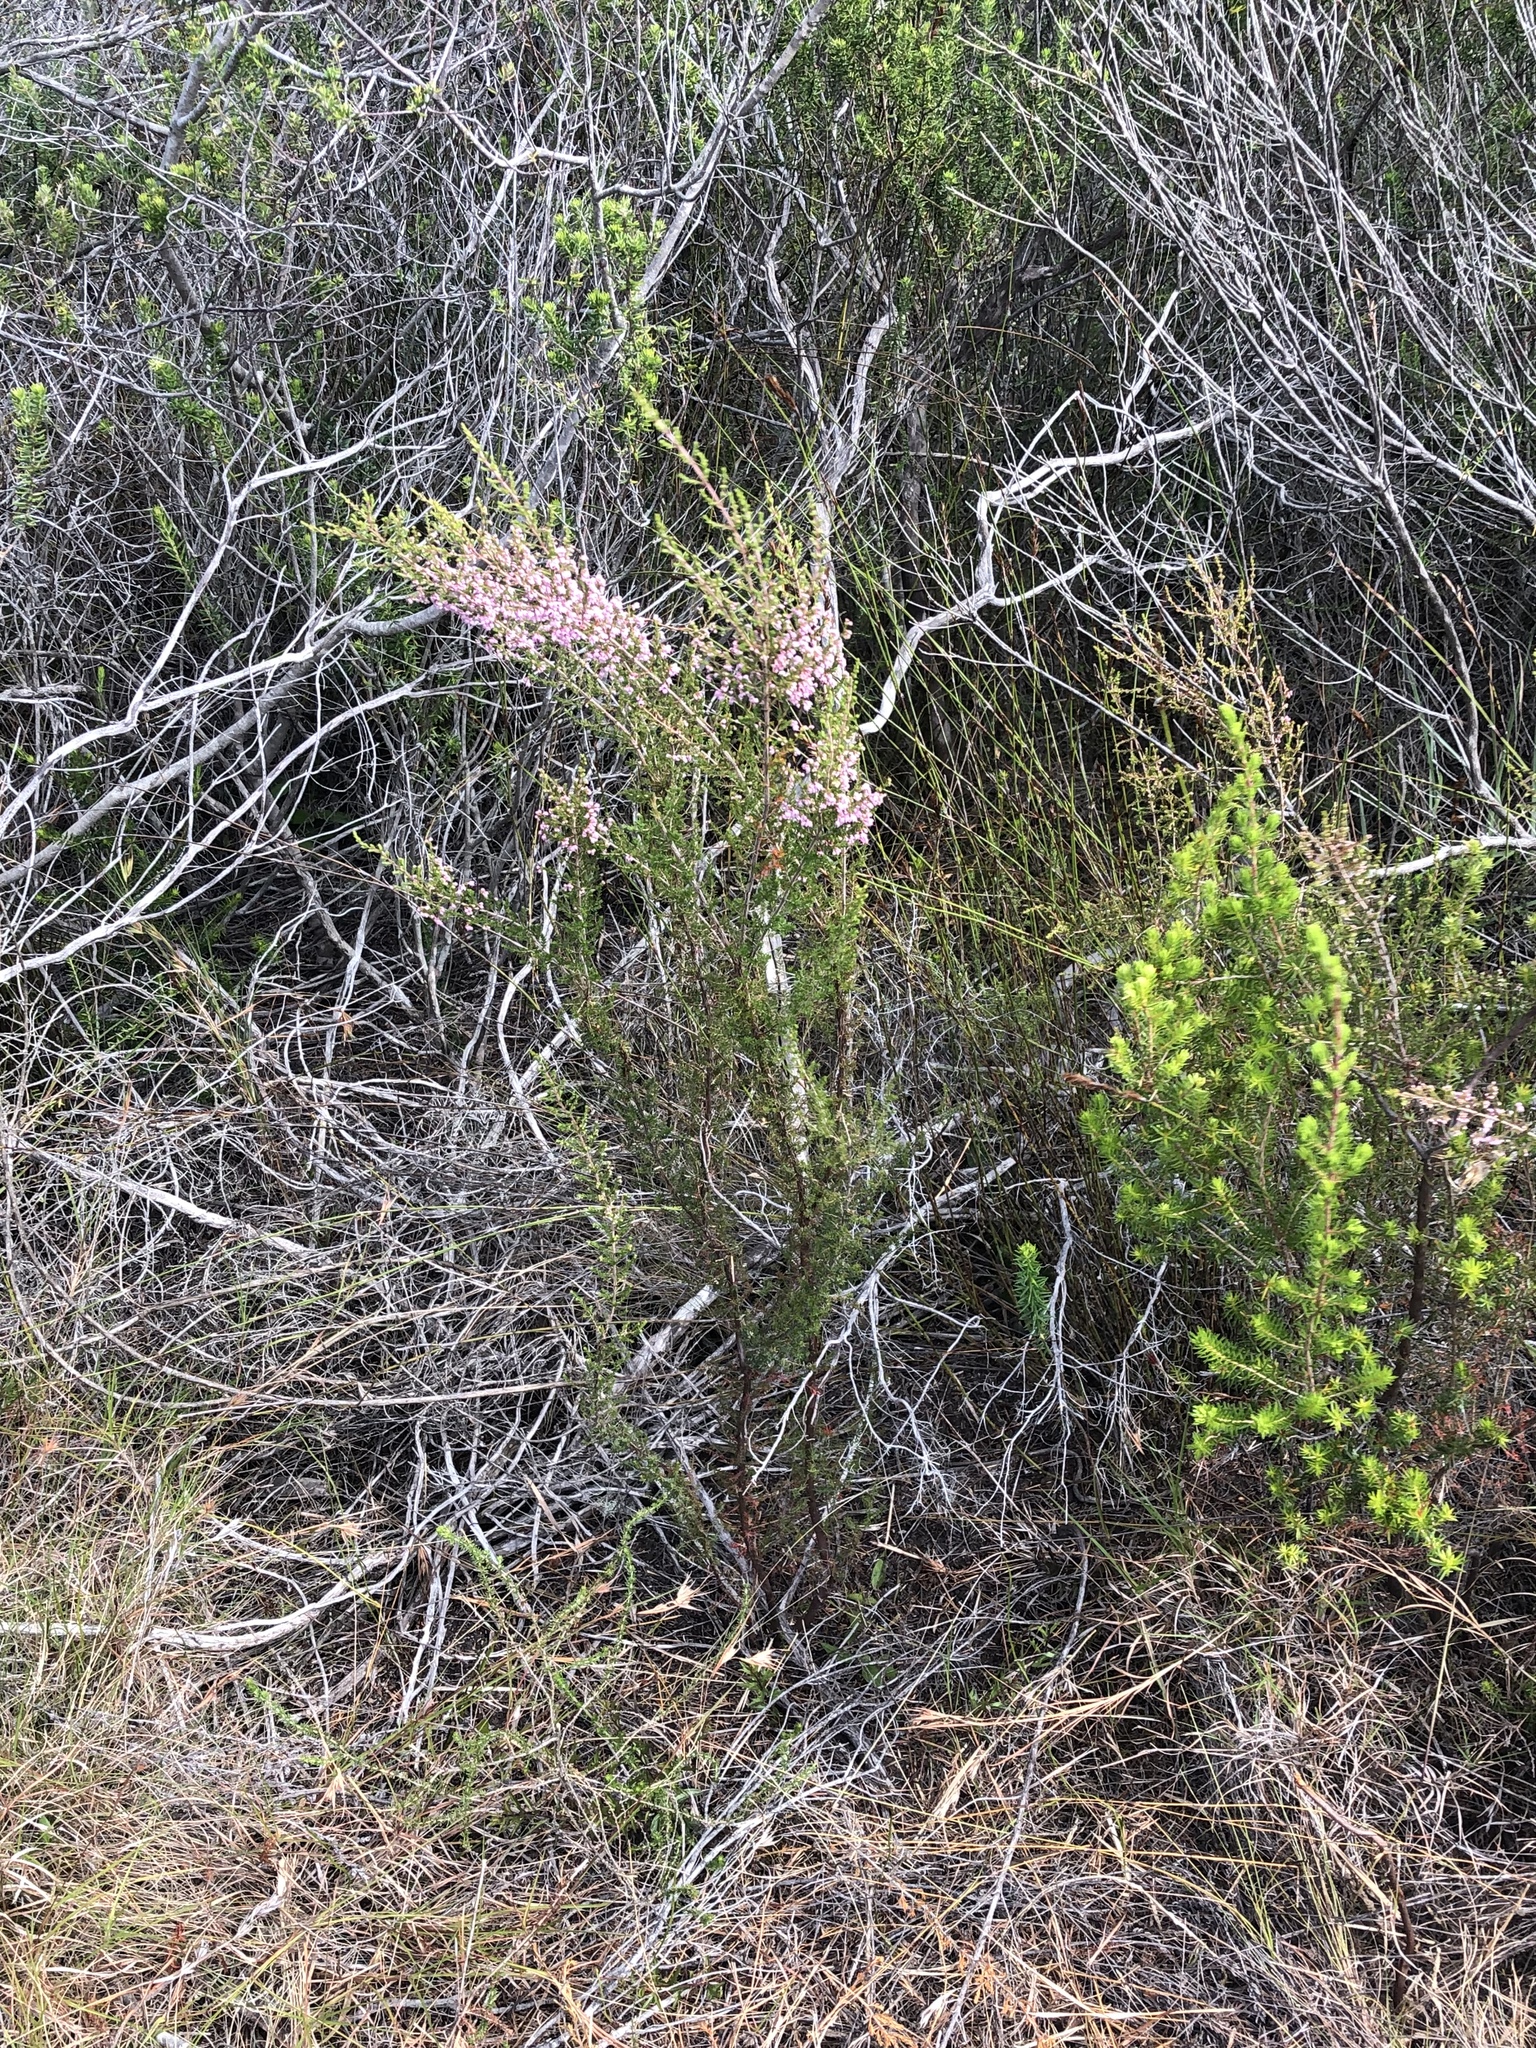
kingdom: Plantae
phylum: Tracheophyta
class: Magnoliopsida
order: Ericales
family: Ericaceae
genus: Erica
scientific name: Erica sparsa
